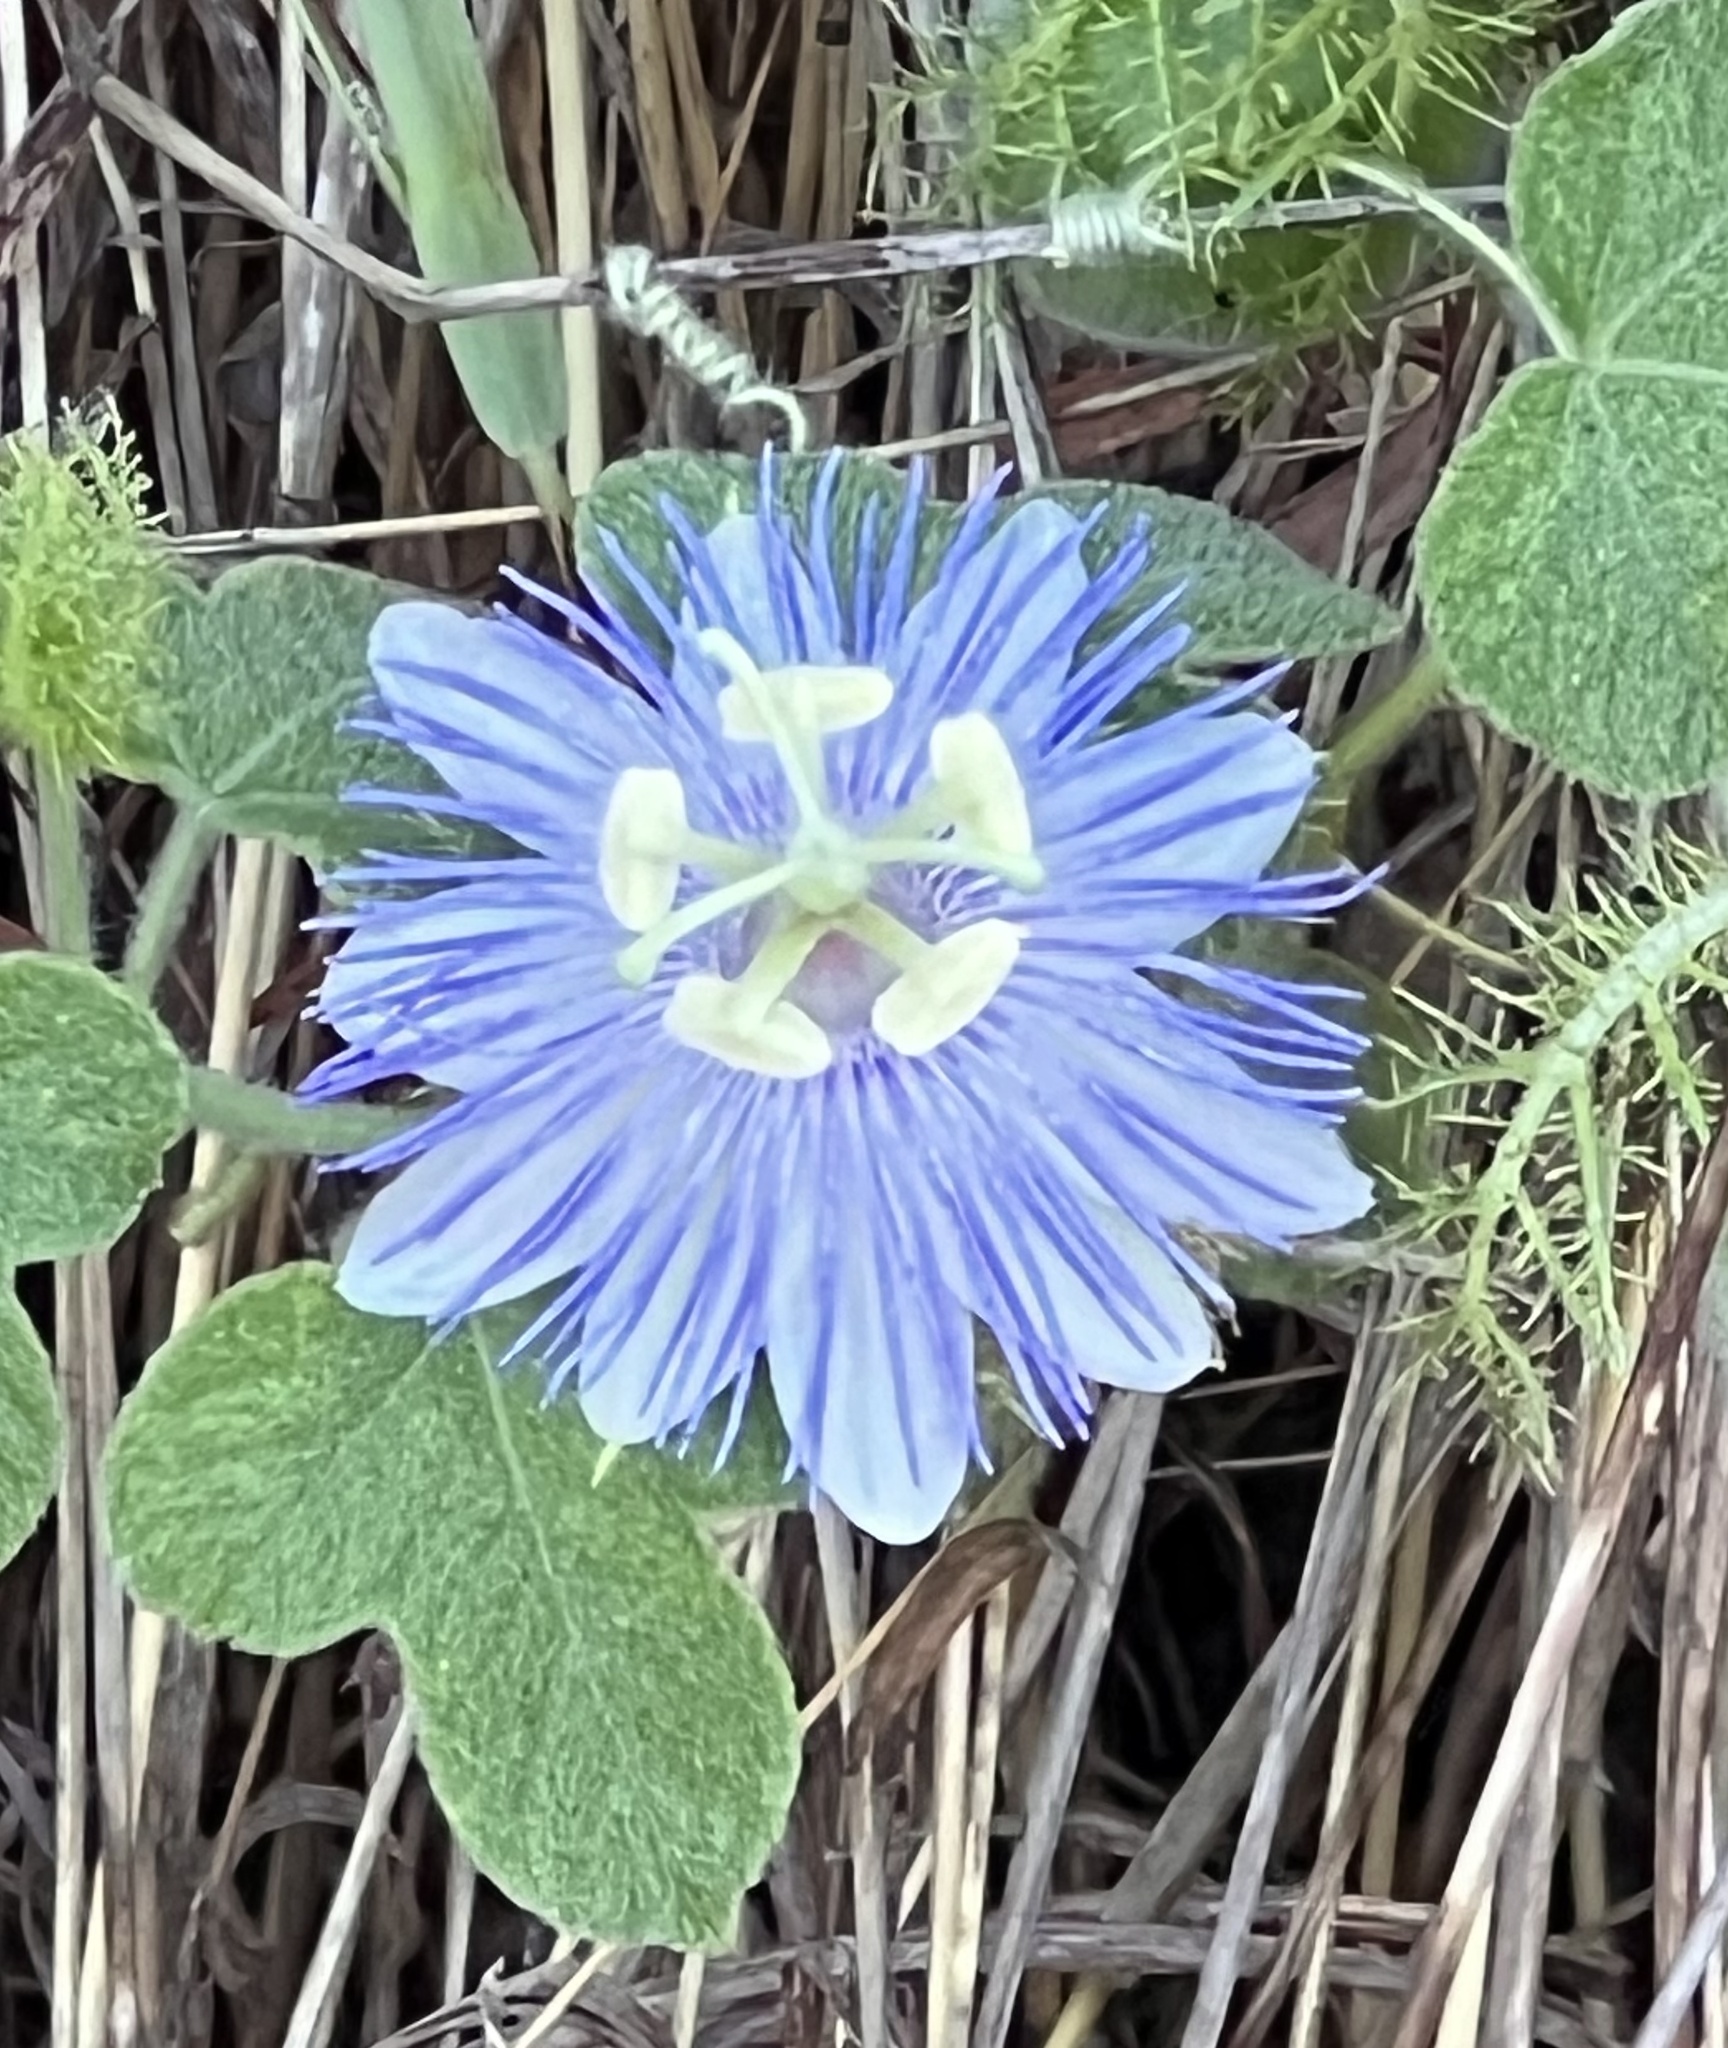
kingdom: Plantae
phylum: Tracheophyta
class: Magnoliopsida
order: Malpighiales
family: Passifloraceae
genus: Passiflora
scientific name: Passiflora foetida
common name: Fetid passionflower
